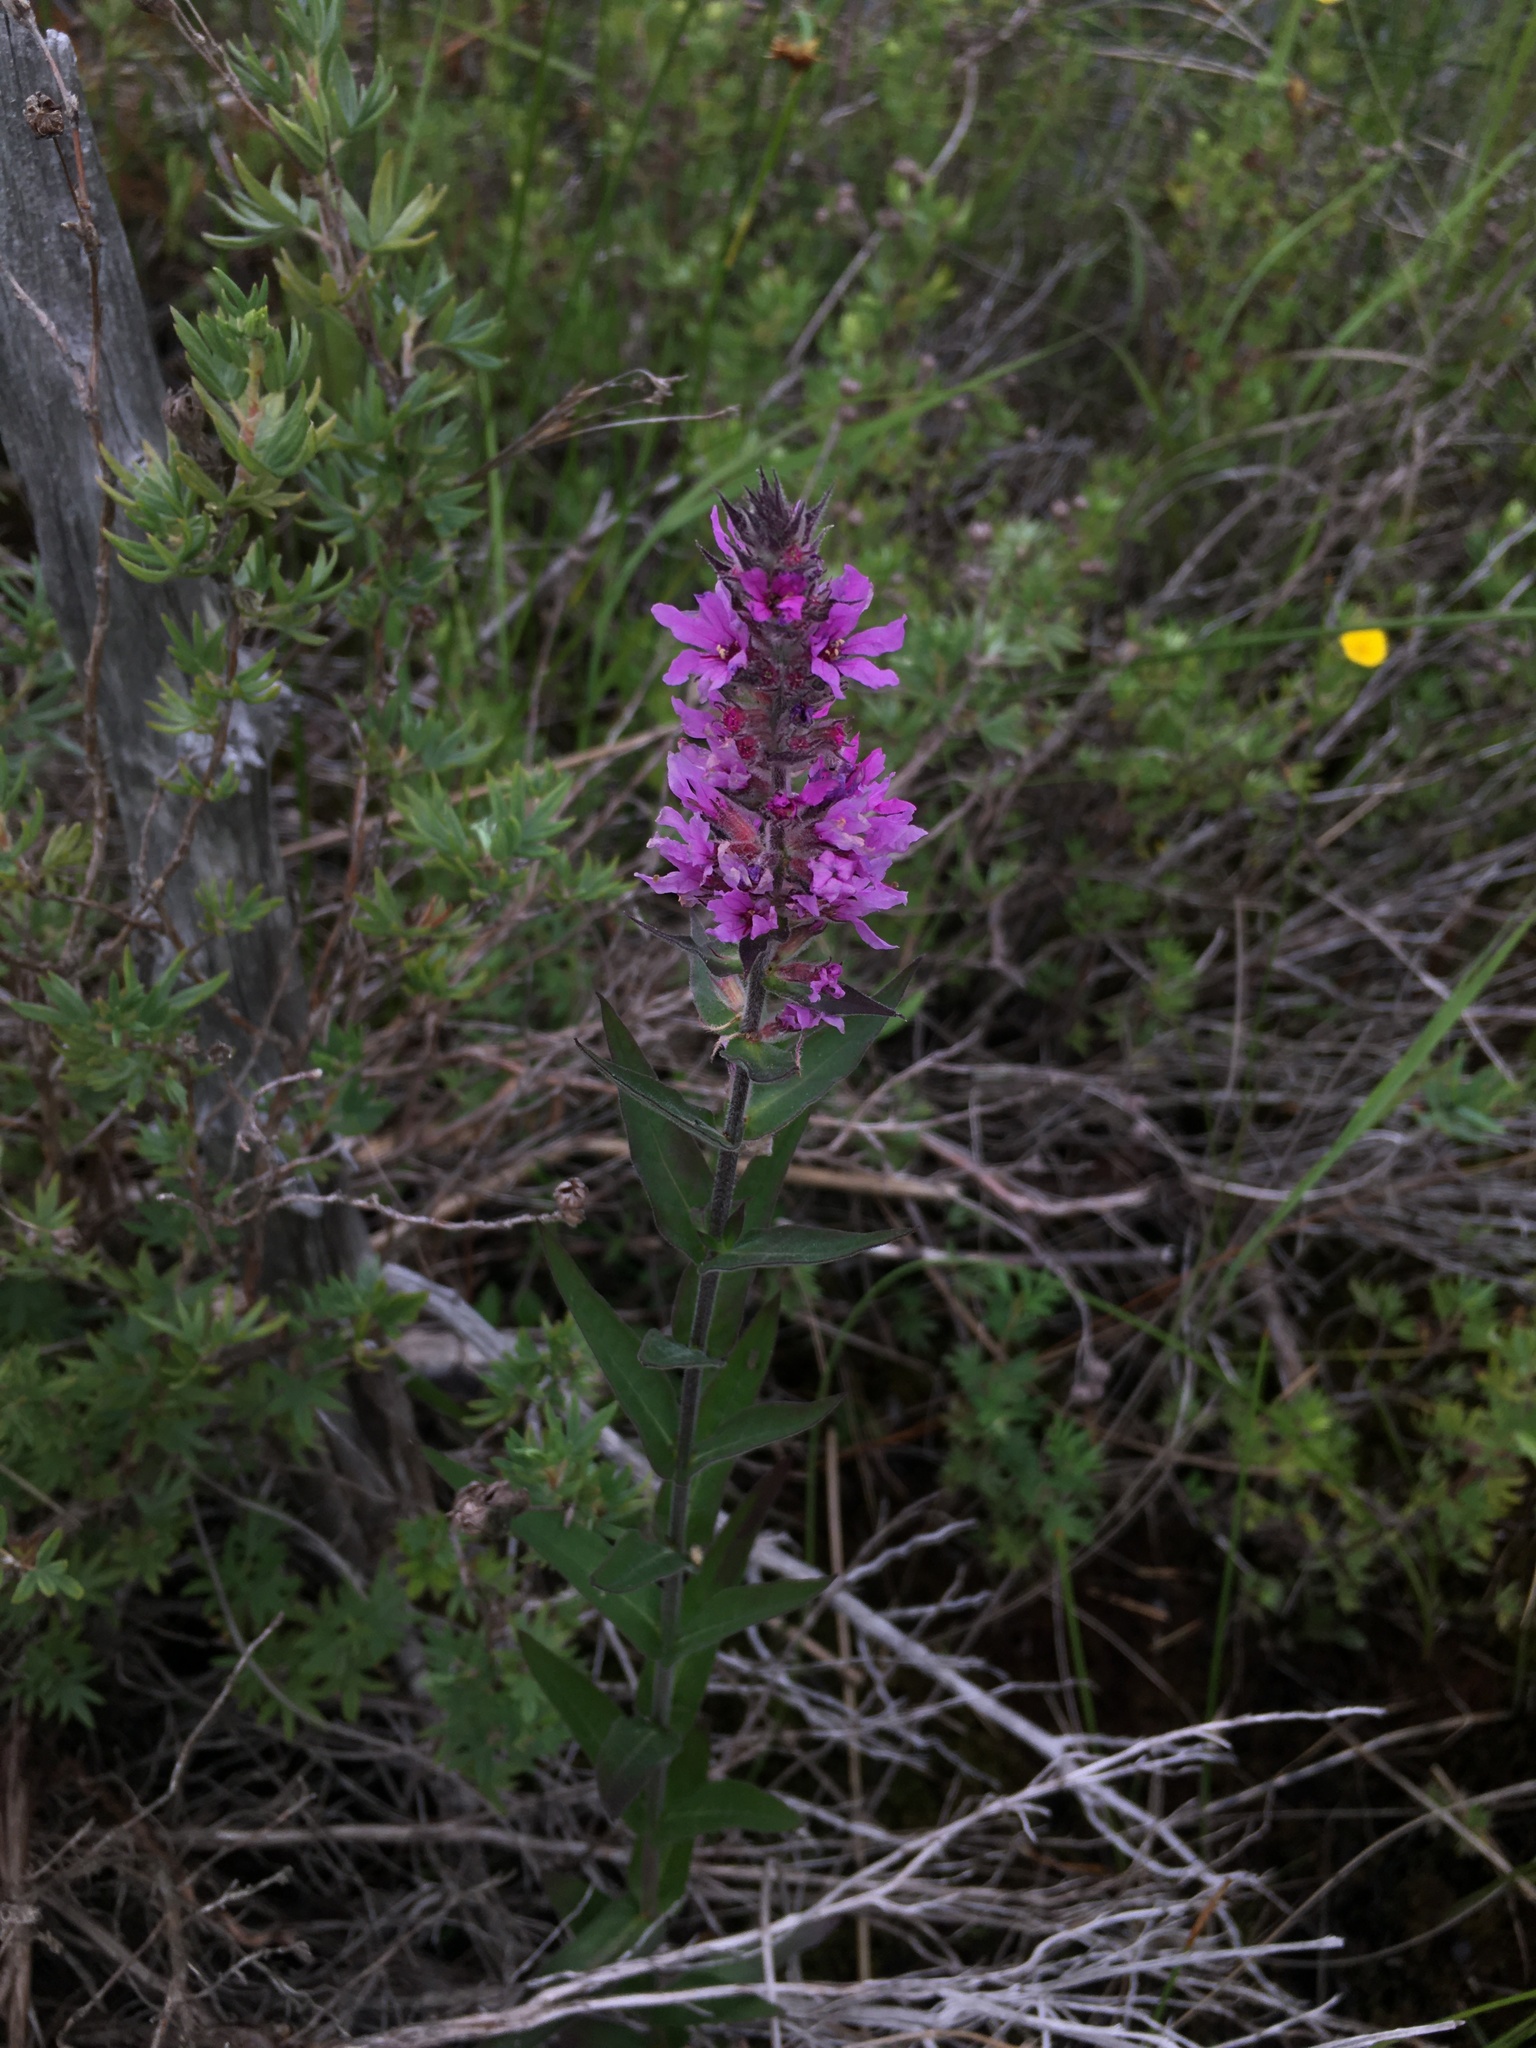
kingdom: Plantae
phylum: Tracheophyta
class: Magnoliopsida
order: Myrtales
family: Lythraceae
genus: Lythrum
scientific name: Lythrum salicaria
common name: Purple loosestrife
